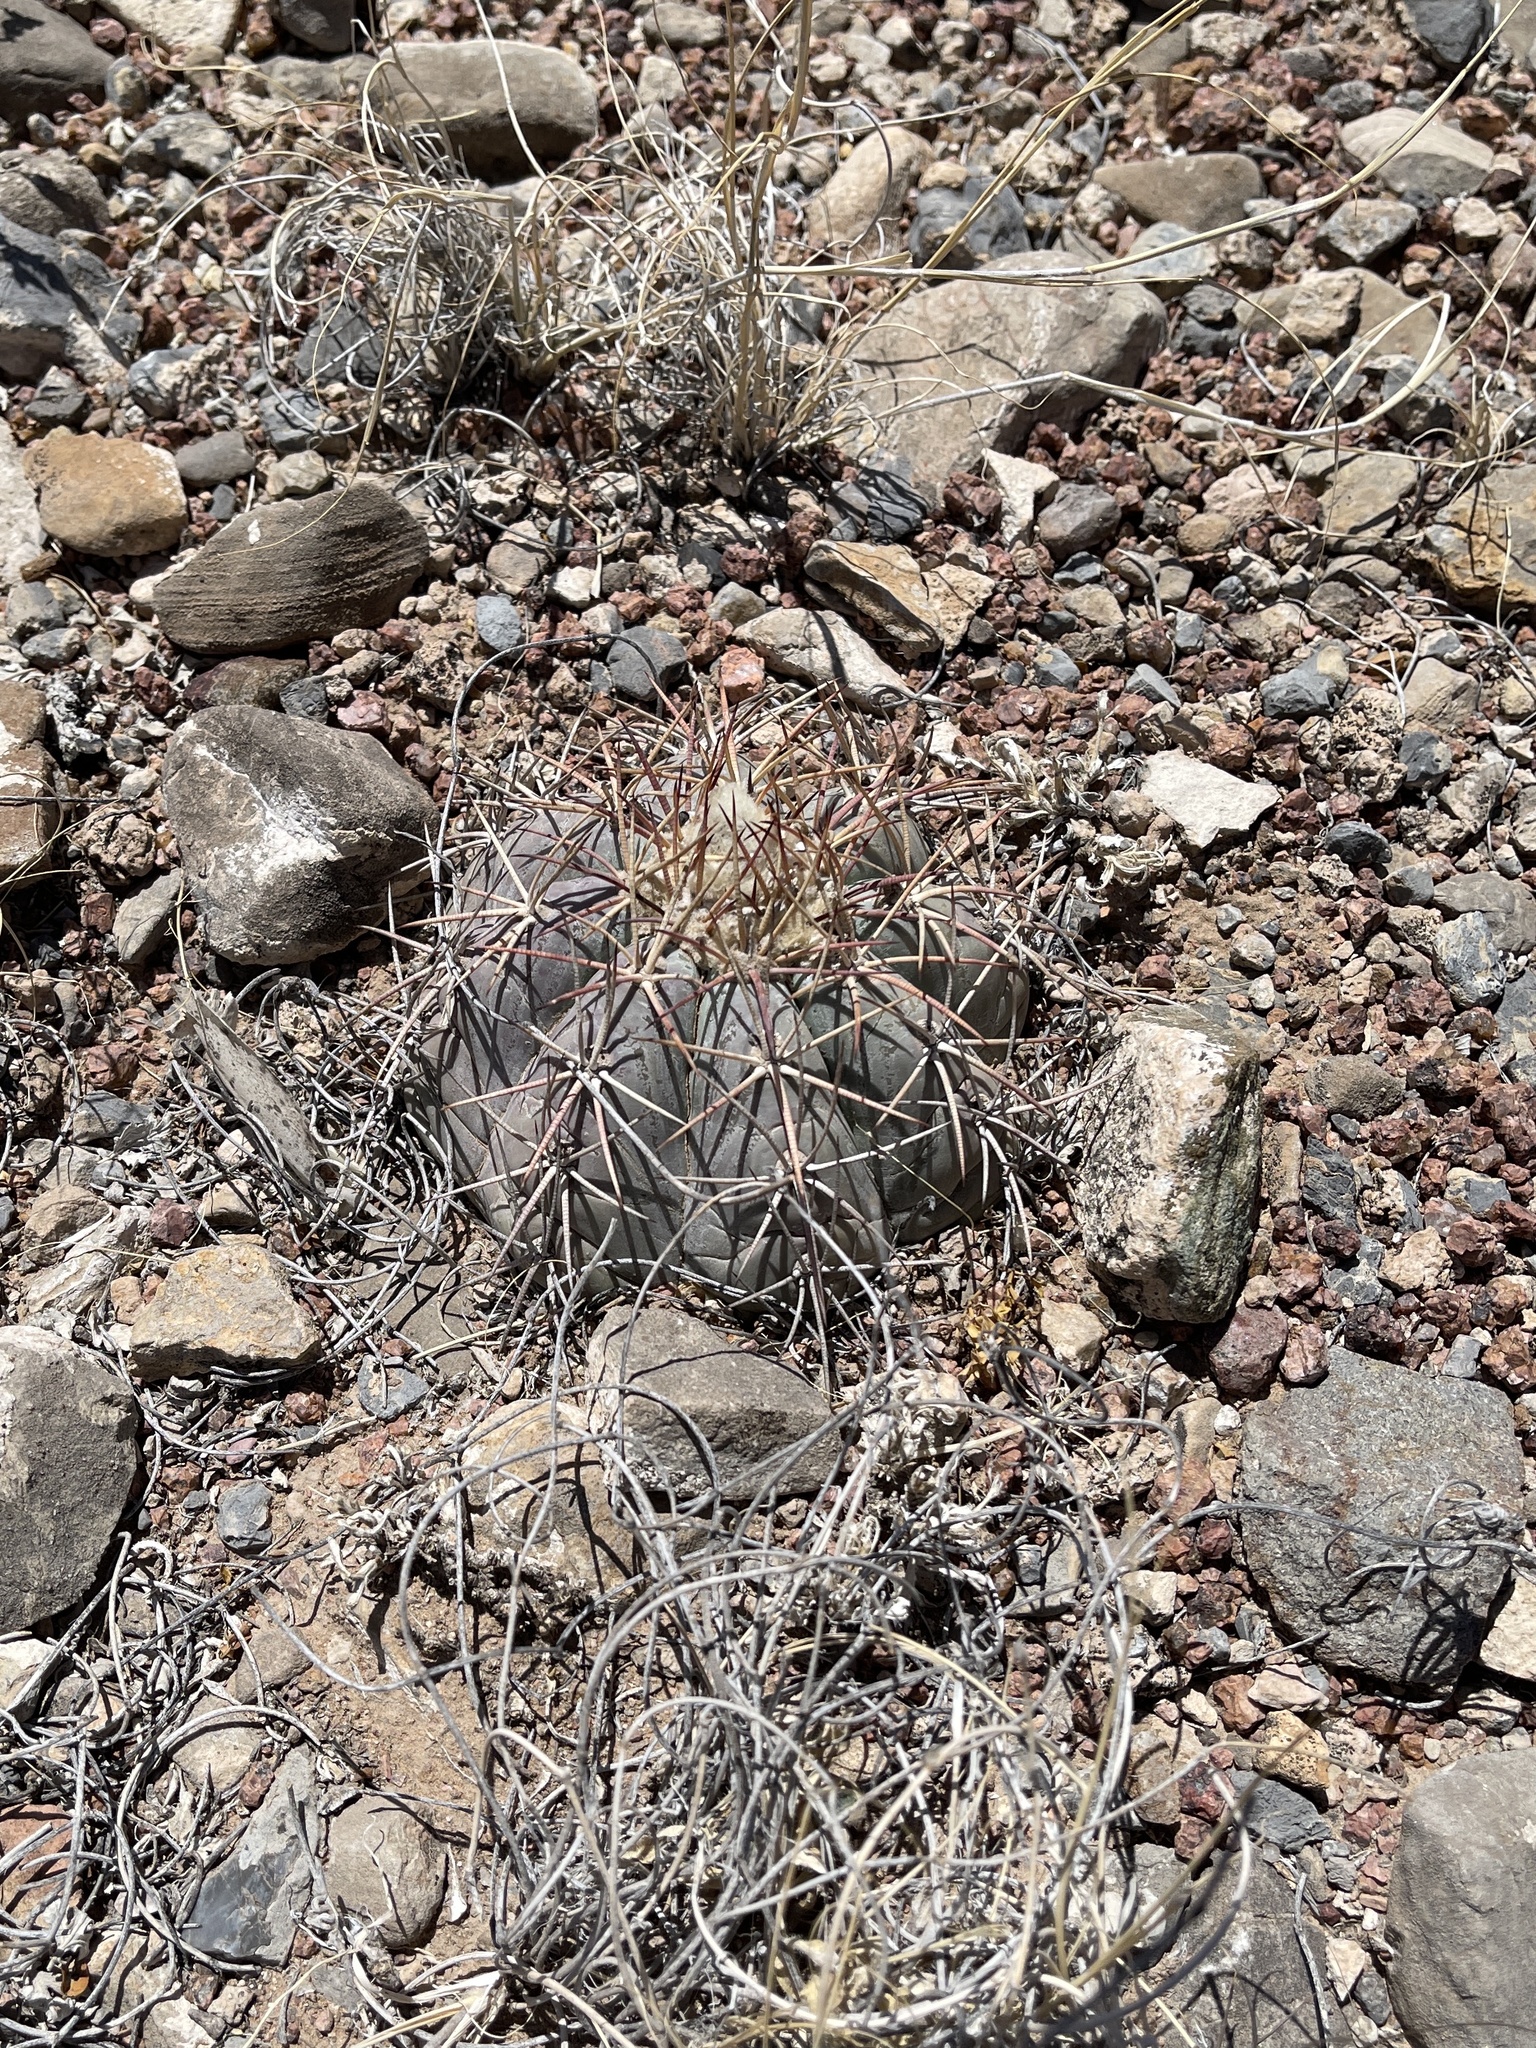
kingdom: Plantae
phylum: Tracheophyta
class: Magnoliopsida
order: Caryophyllales
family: Cactaceae
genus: Echinocactus
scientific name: Echinocactus horizonthalonius
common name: Devilshead
